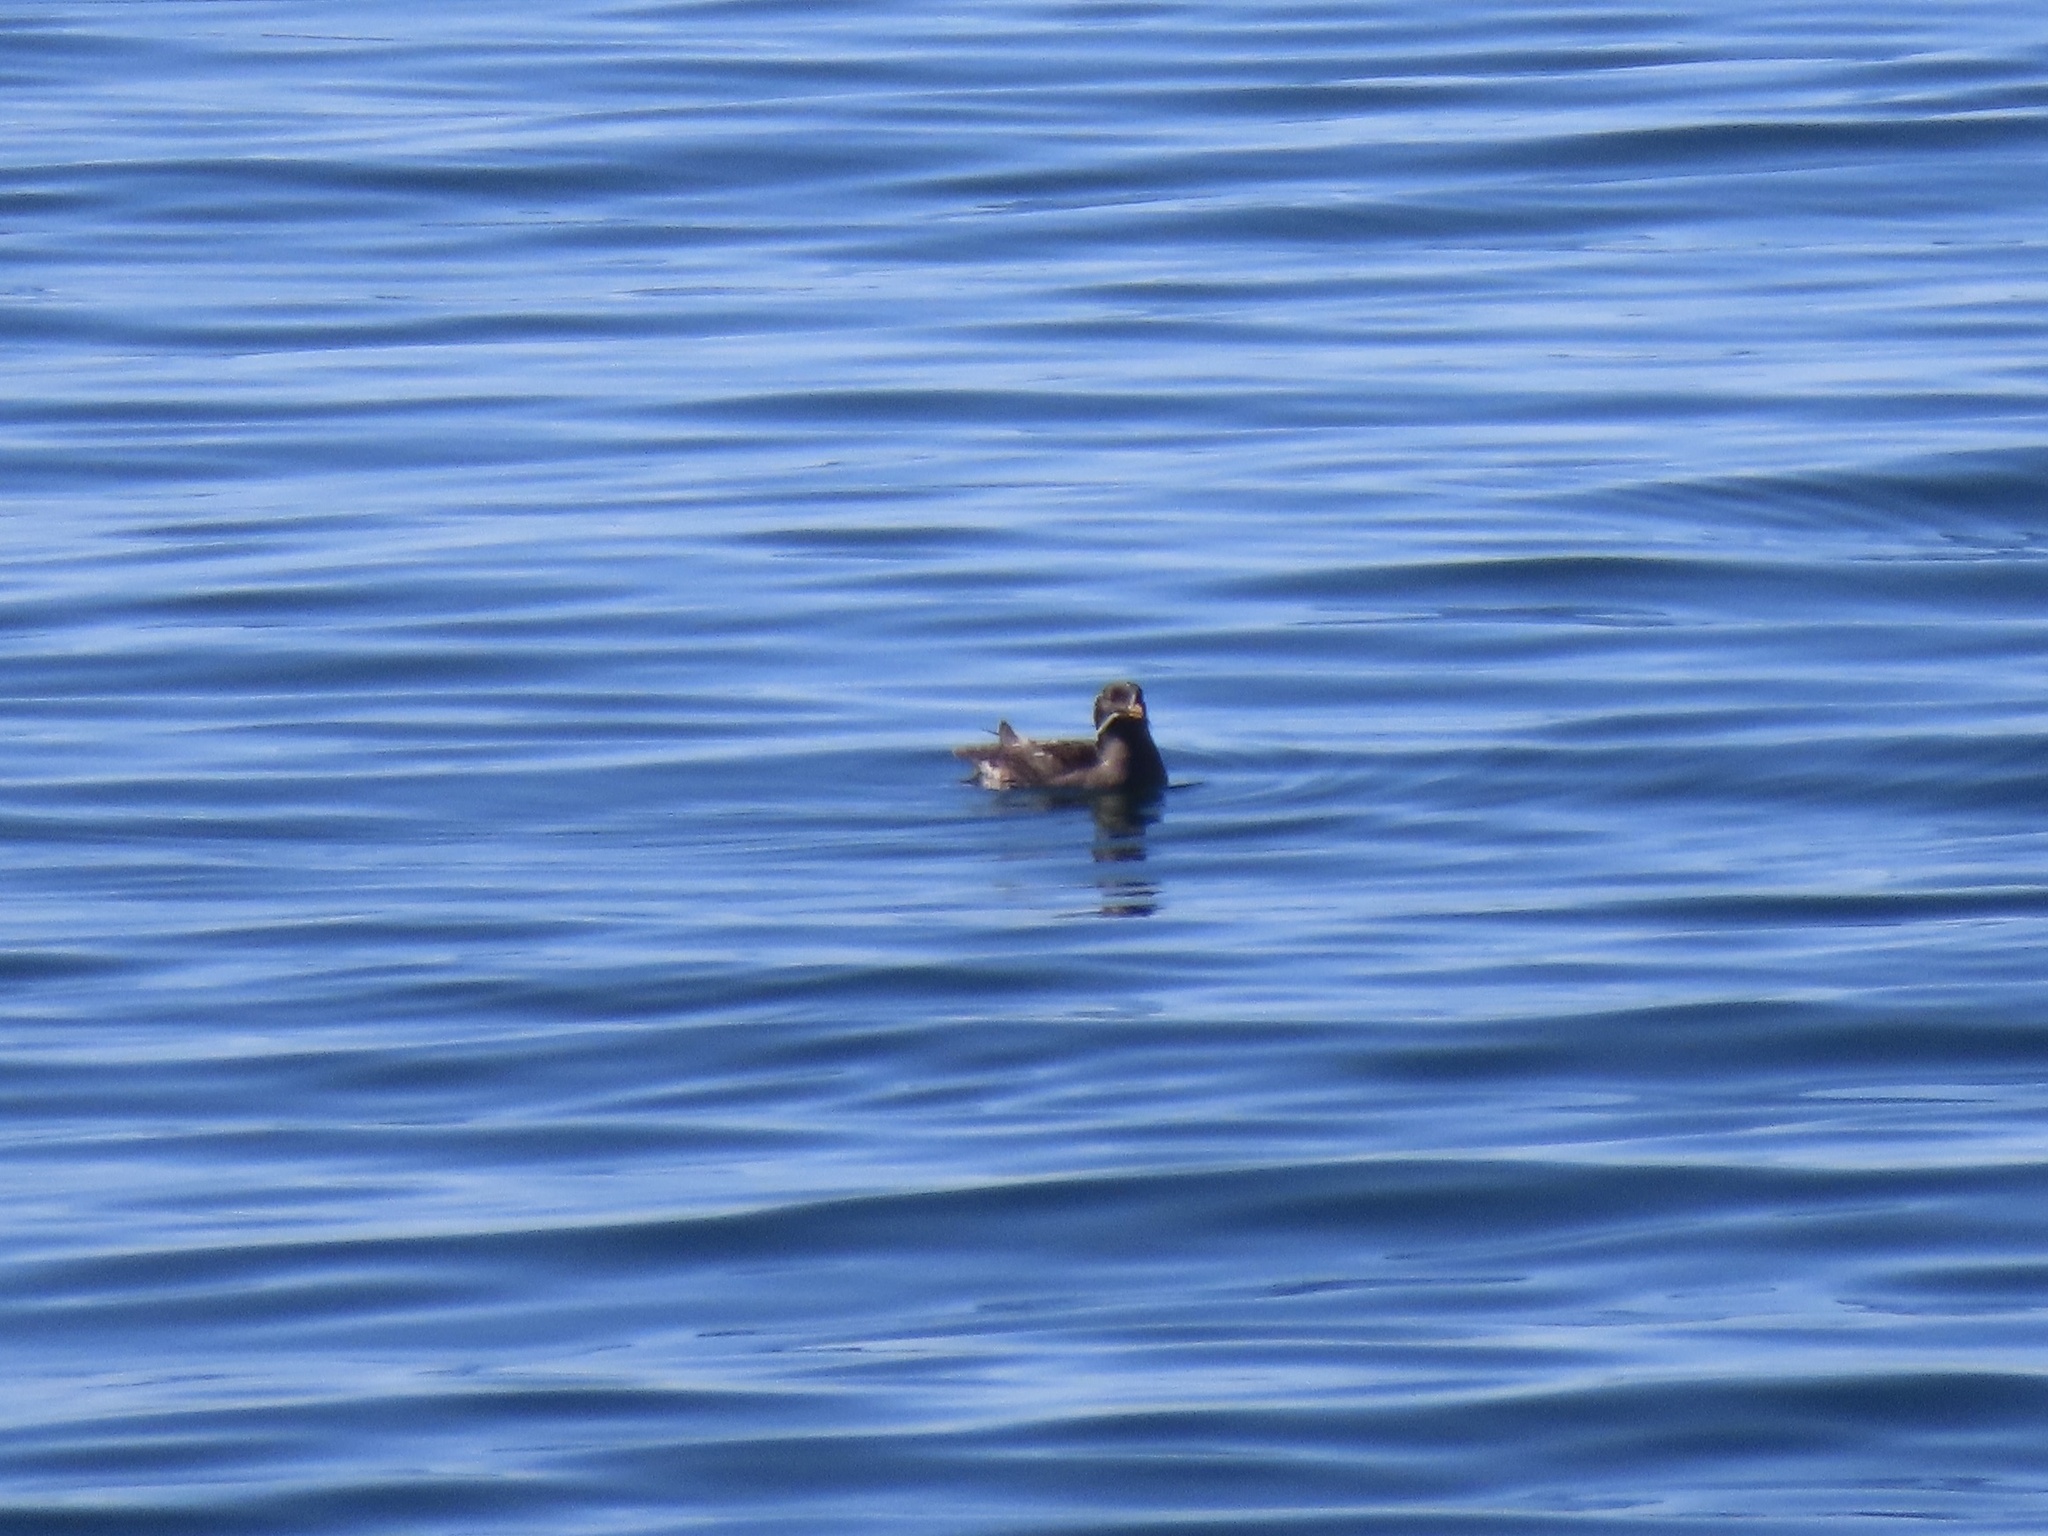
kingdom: Animalia
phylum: Chordata
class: Aves
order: Charadriiformes
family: Alcidae
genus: Cerorhinca
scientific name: Cerorhinca monocerata
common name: Rhinoceros auklet
